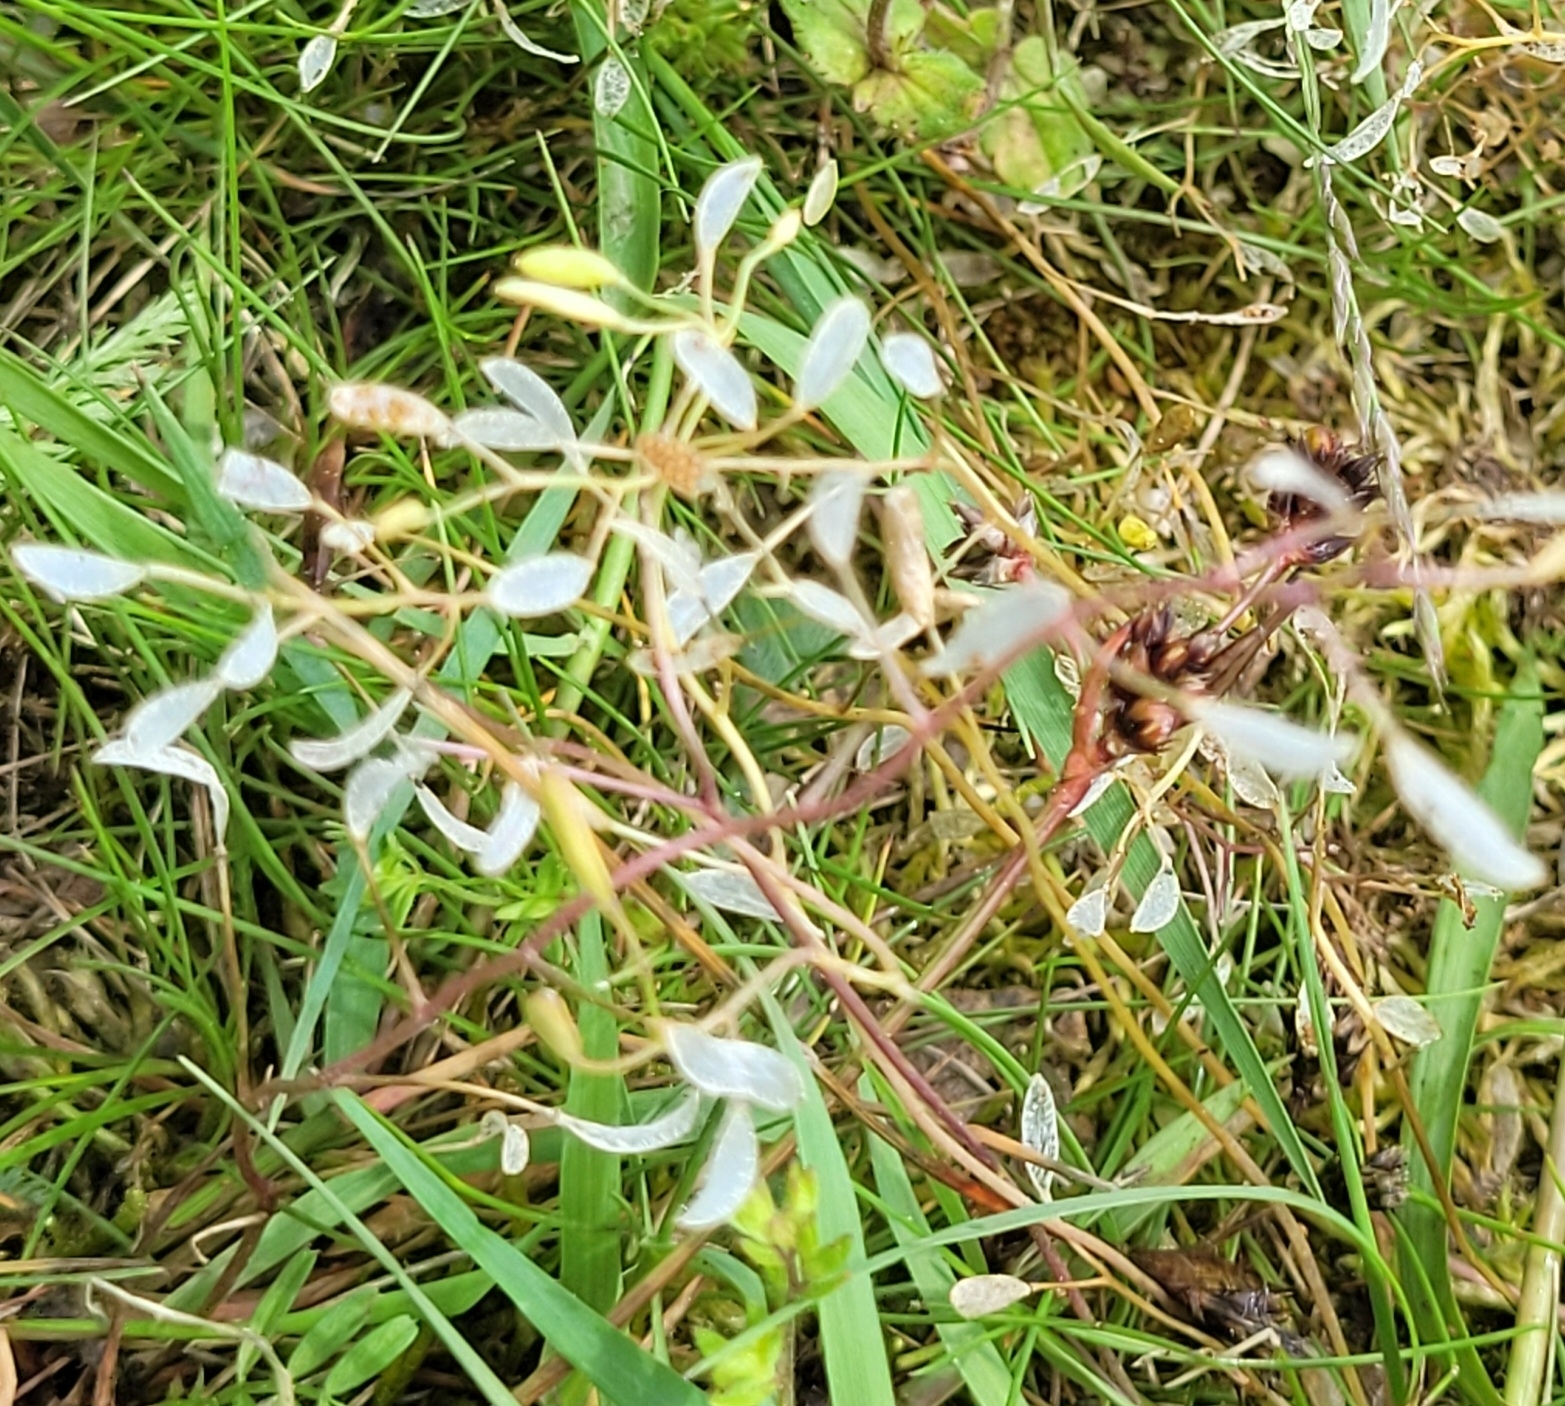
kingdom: Plantae
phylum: Tracheophyta
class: Magnoliopsida
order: Brassicales
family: Brassicaceae
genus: Draba
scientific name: Draba verna
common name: Spring draba
